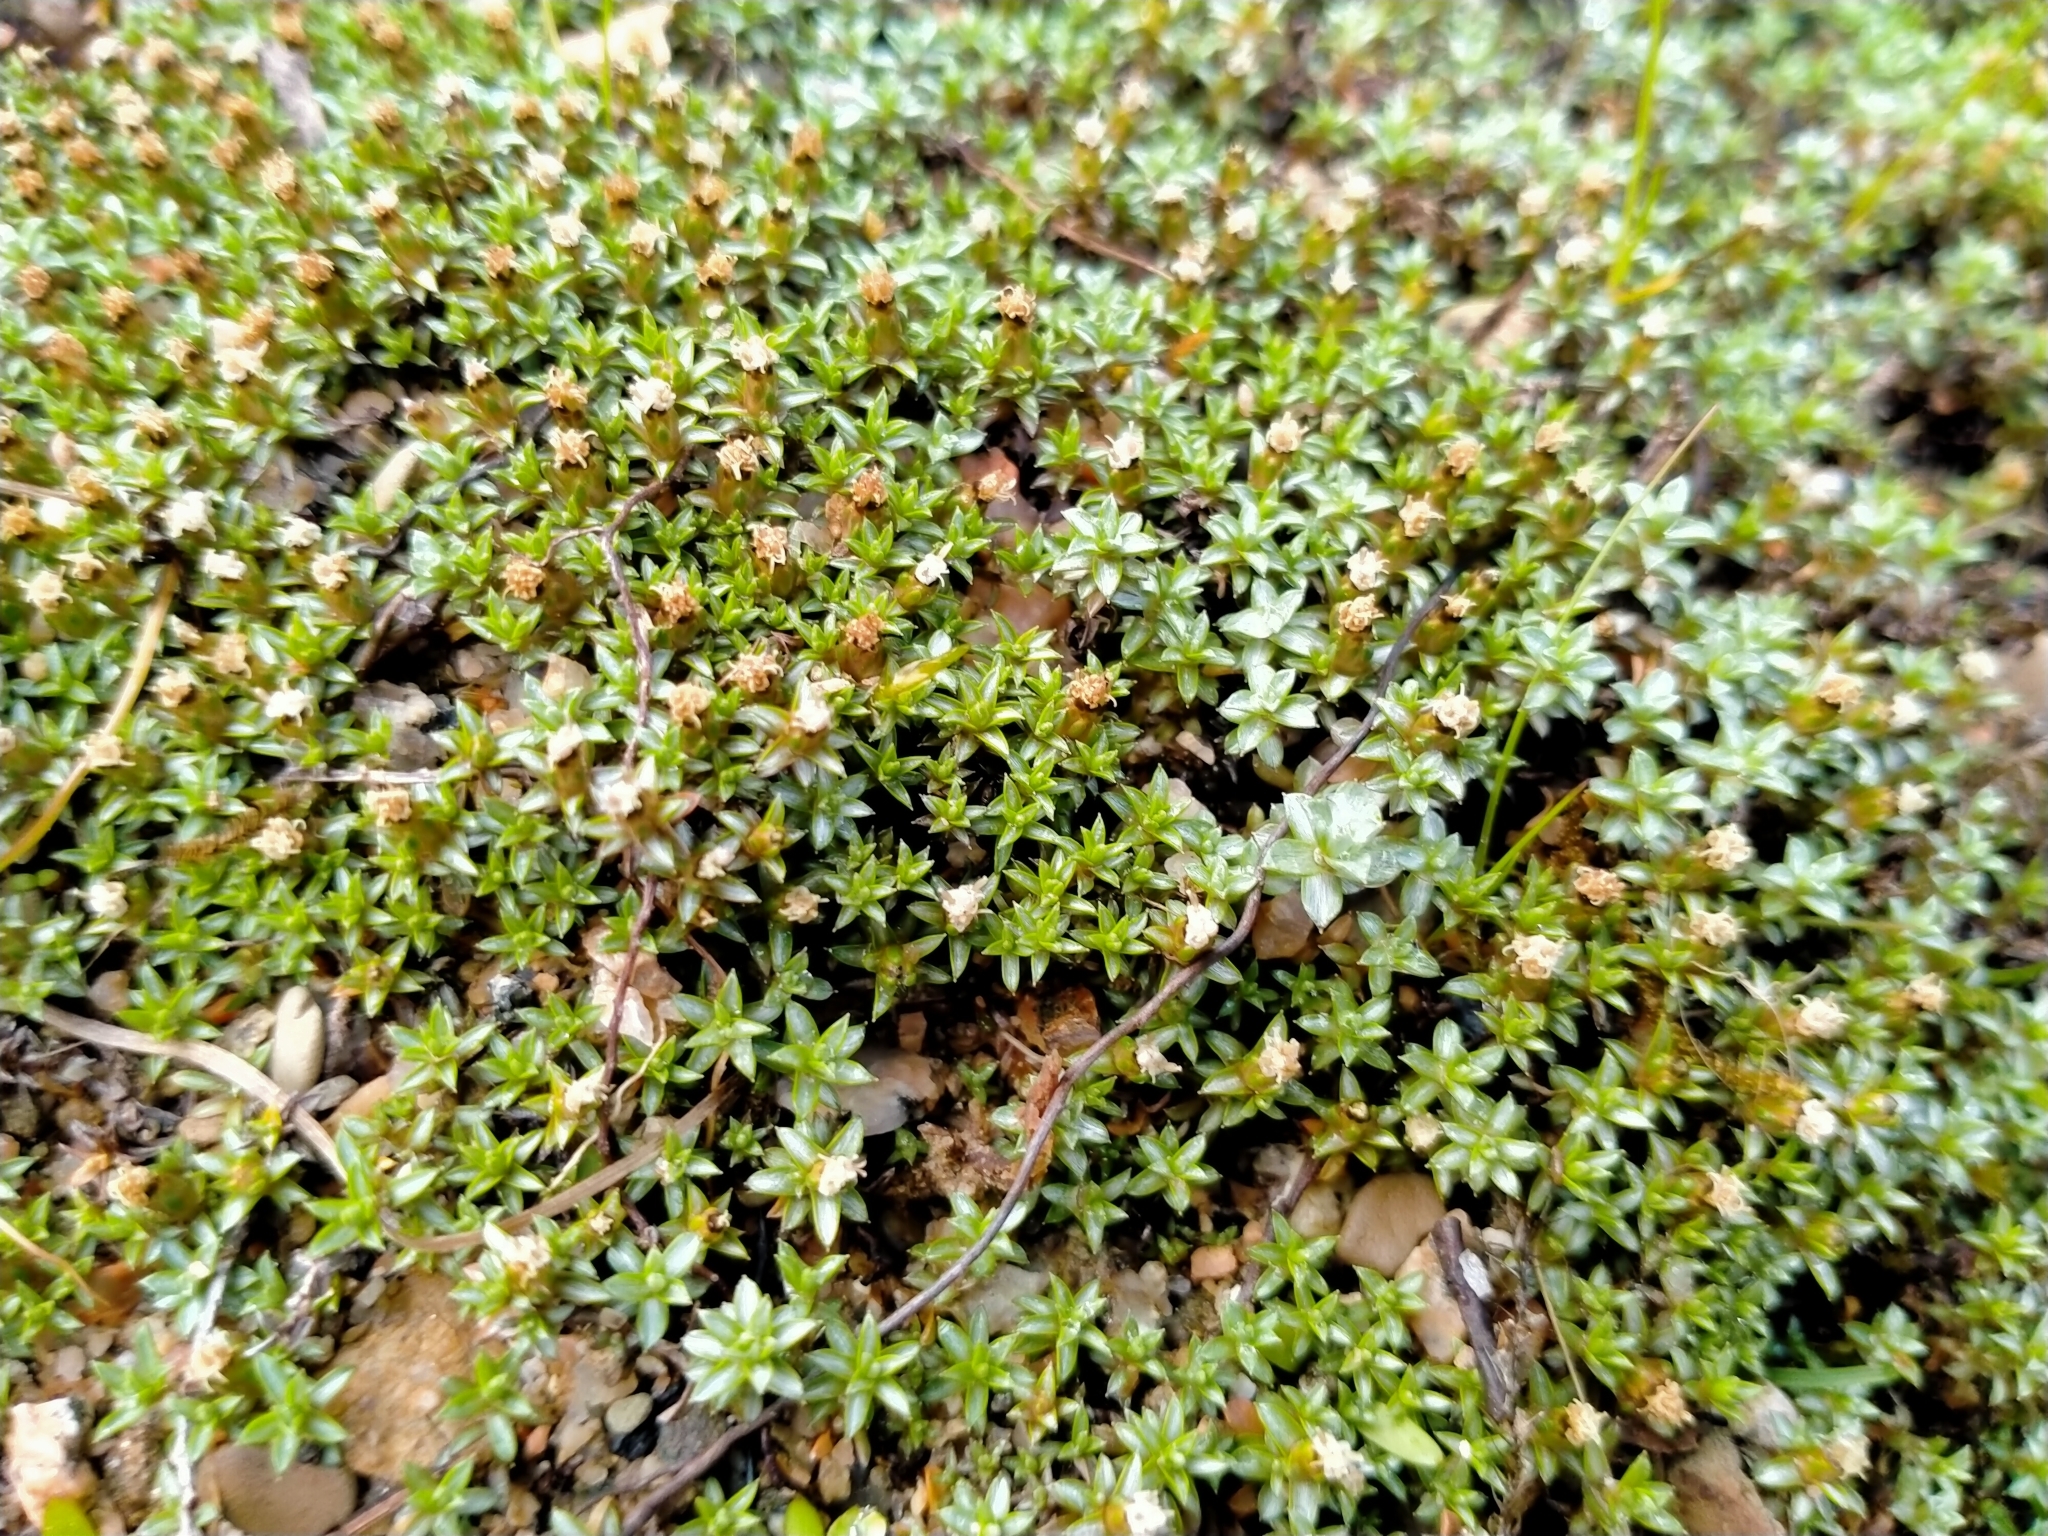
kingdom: Plantae
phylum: Tracheophyta
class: Magnoliopsida
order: Asterales
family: Asteraceae
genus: Raoulia
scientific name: Raoulia tenuicaulis
